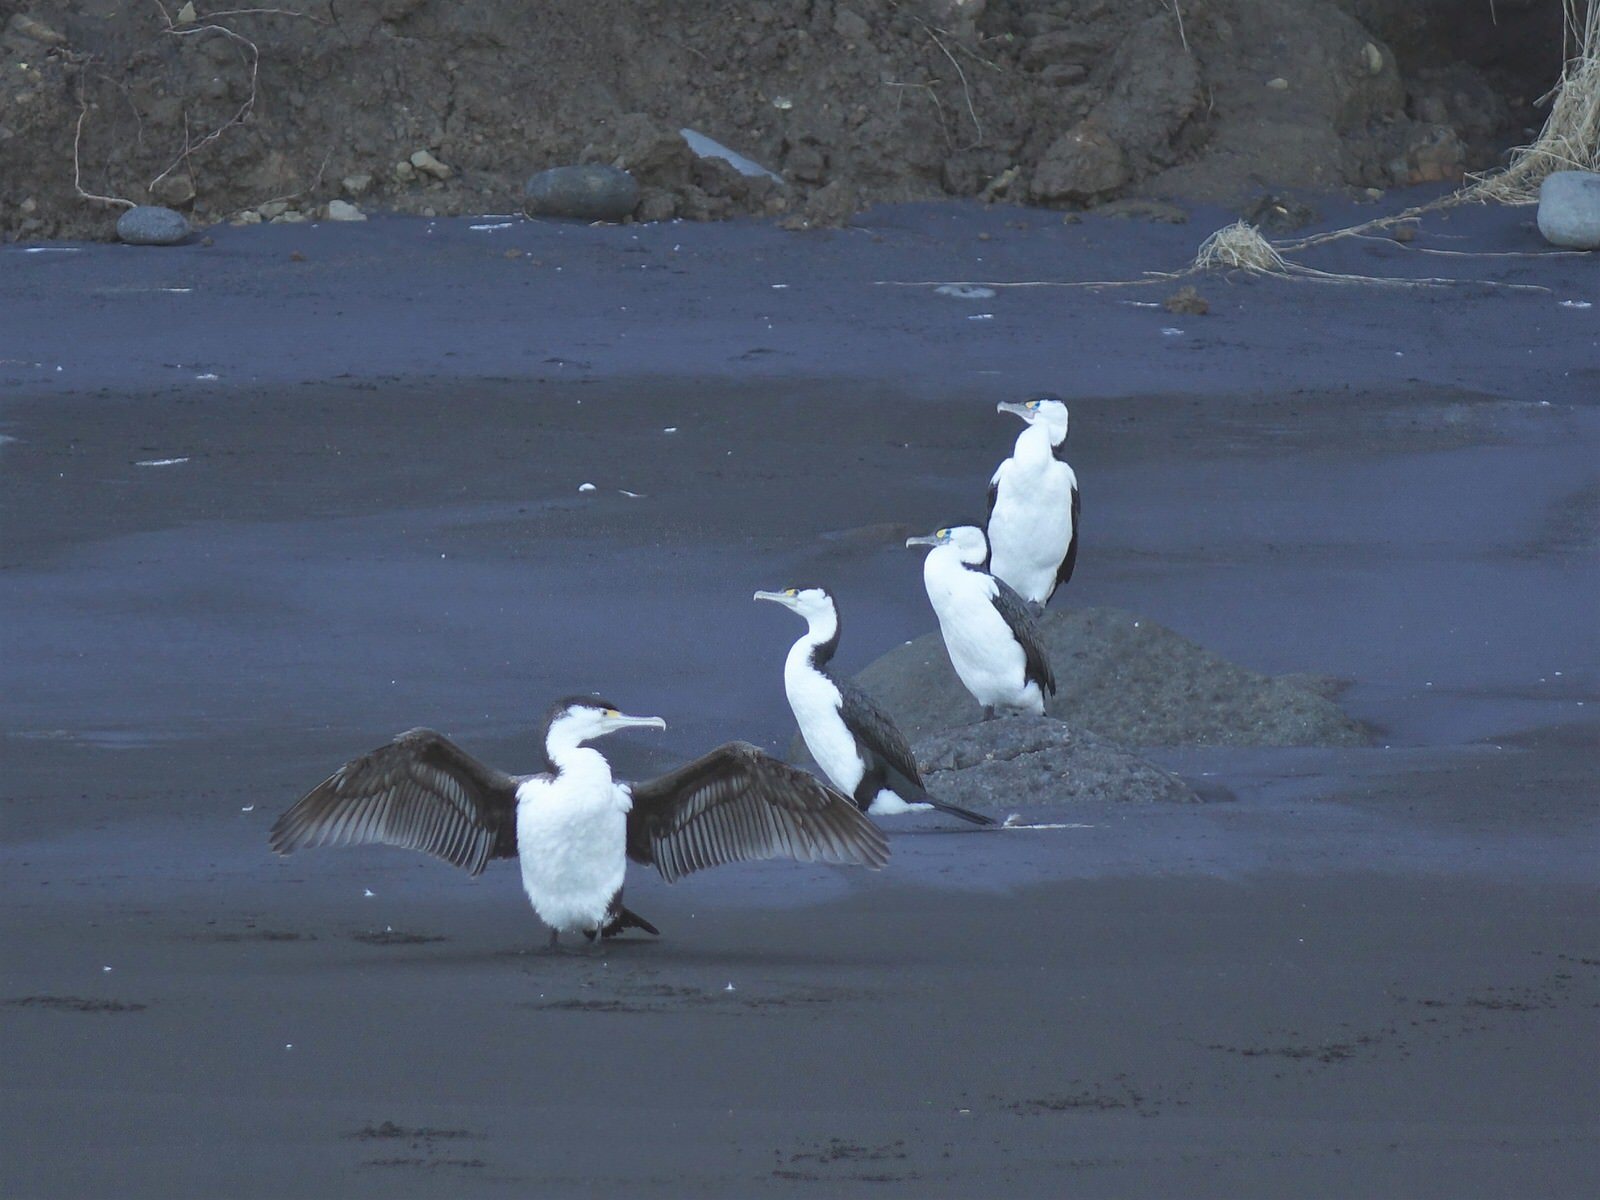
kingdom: Animalia
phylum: Chordata
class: Aves
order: Suliformes
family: Phalacrocoracidae
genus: Phalacrocorax
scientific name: Phalacrocorax varius
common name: Pied cormorant
